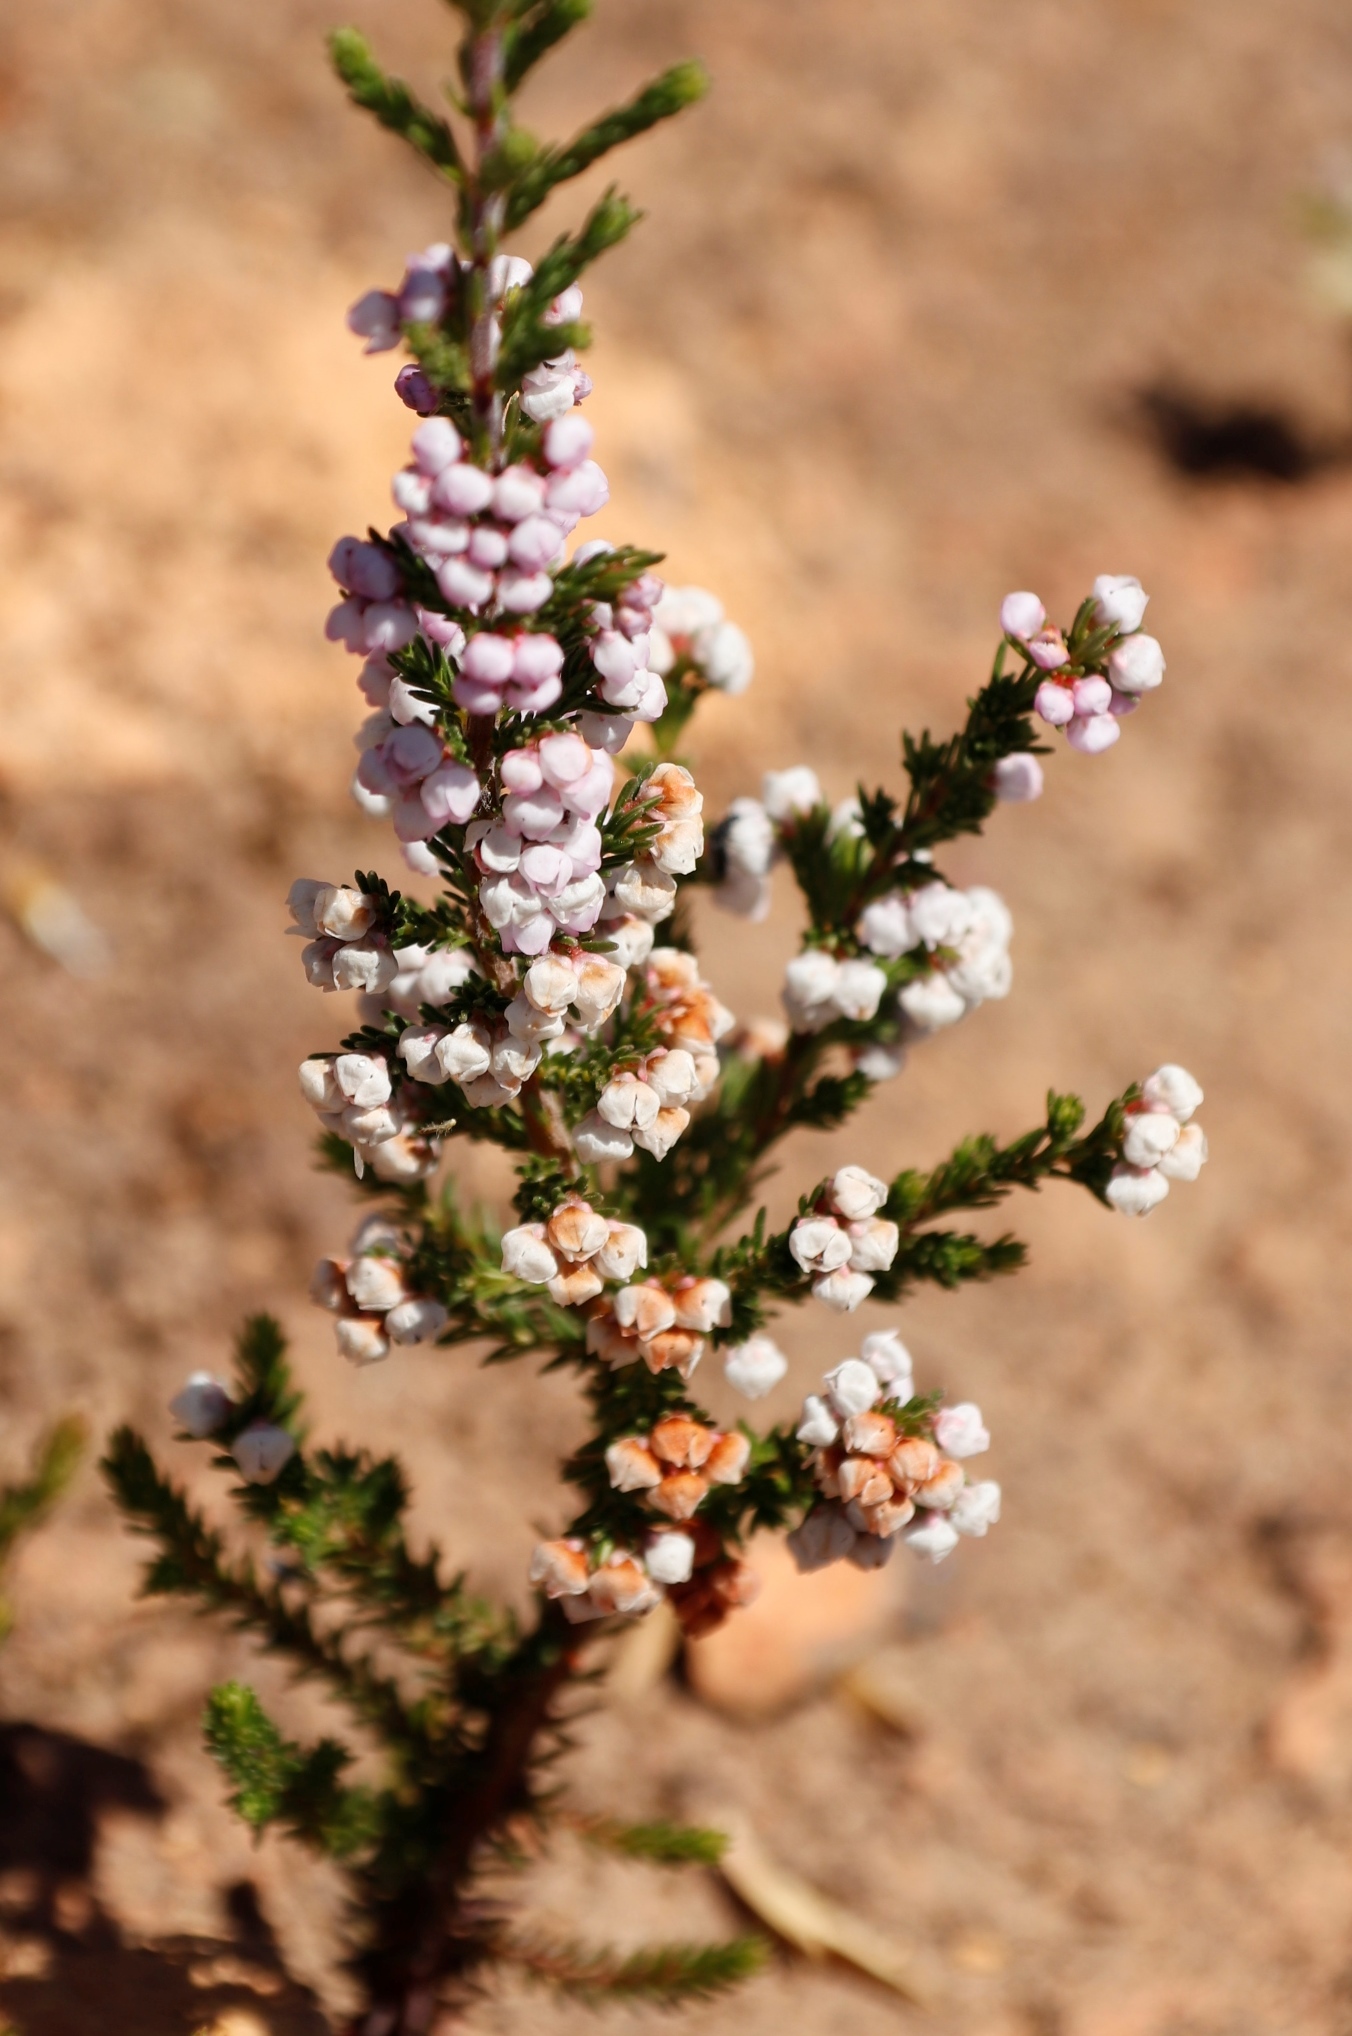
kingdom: Plantae
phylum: Tracheophyta
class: Magnoliopsida
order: Ericales
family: Ericaceae
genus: Erica
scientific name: Erica mauritanica
